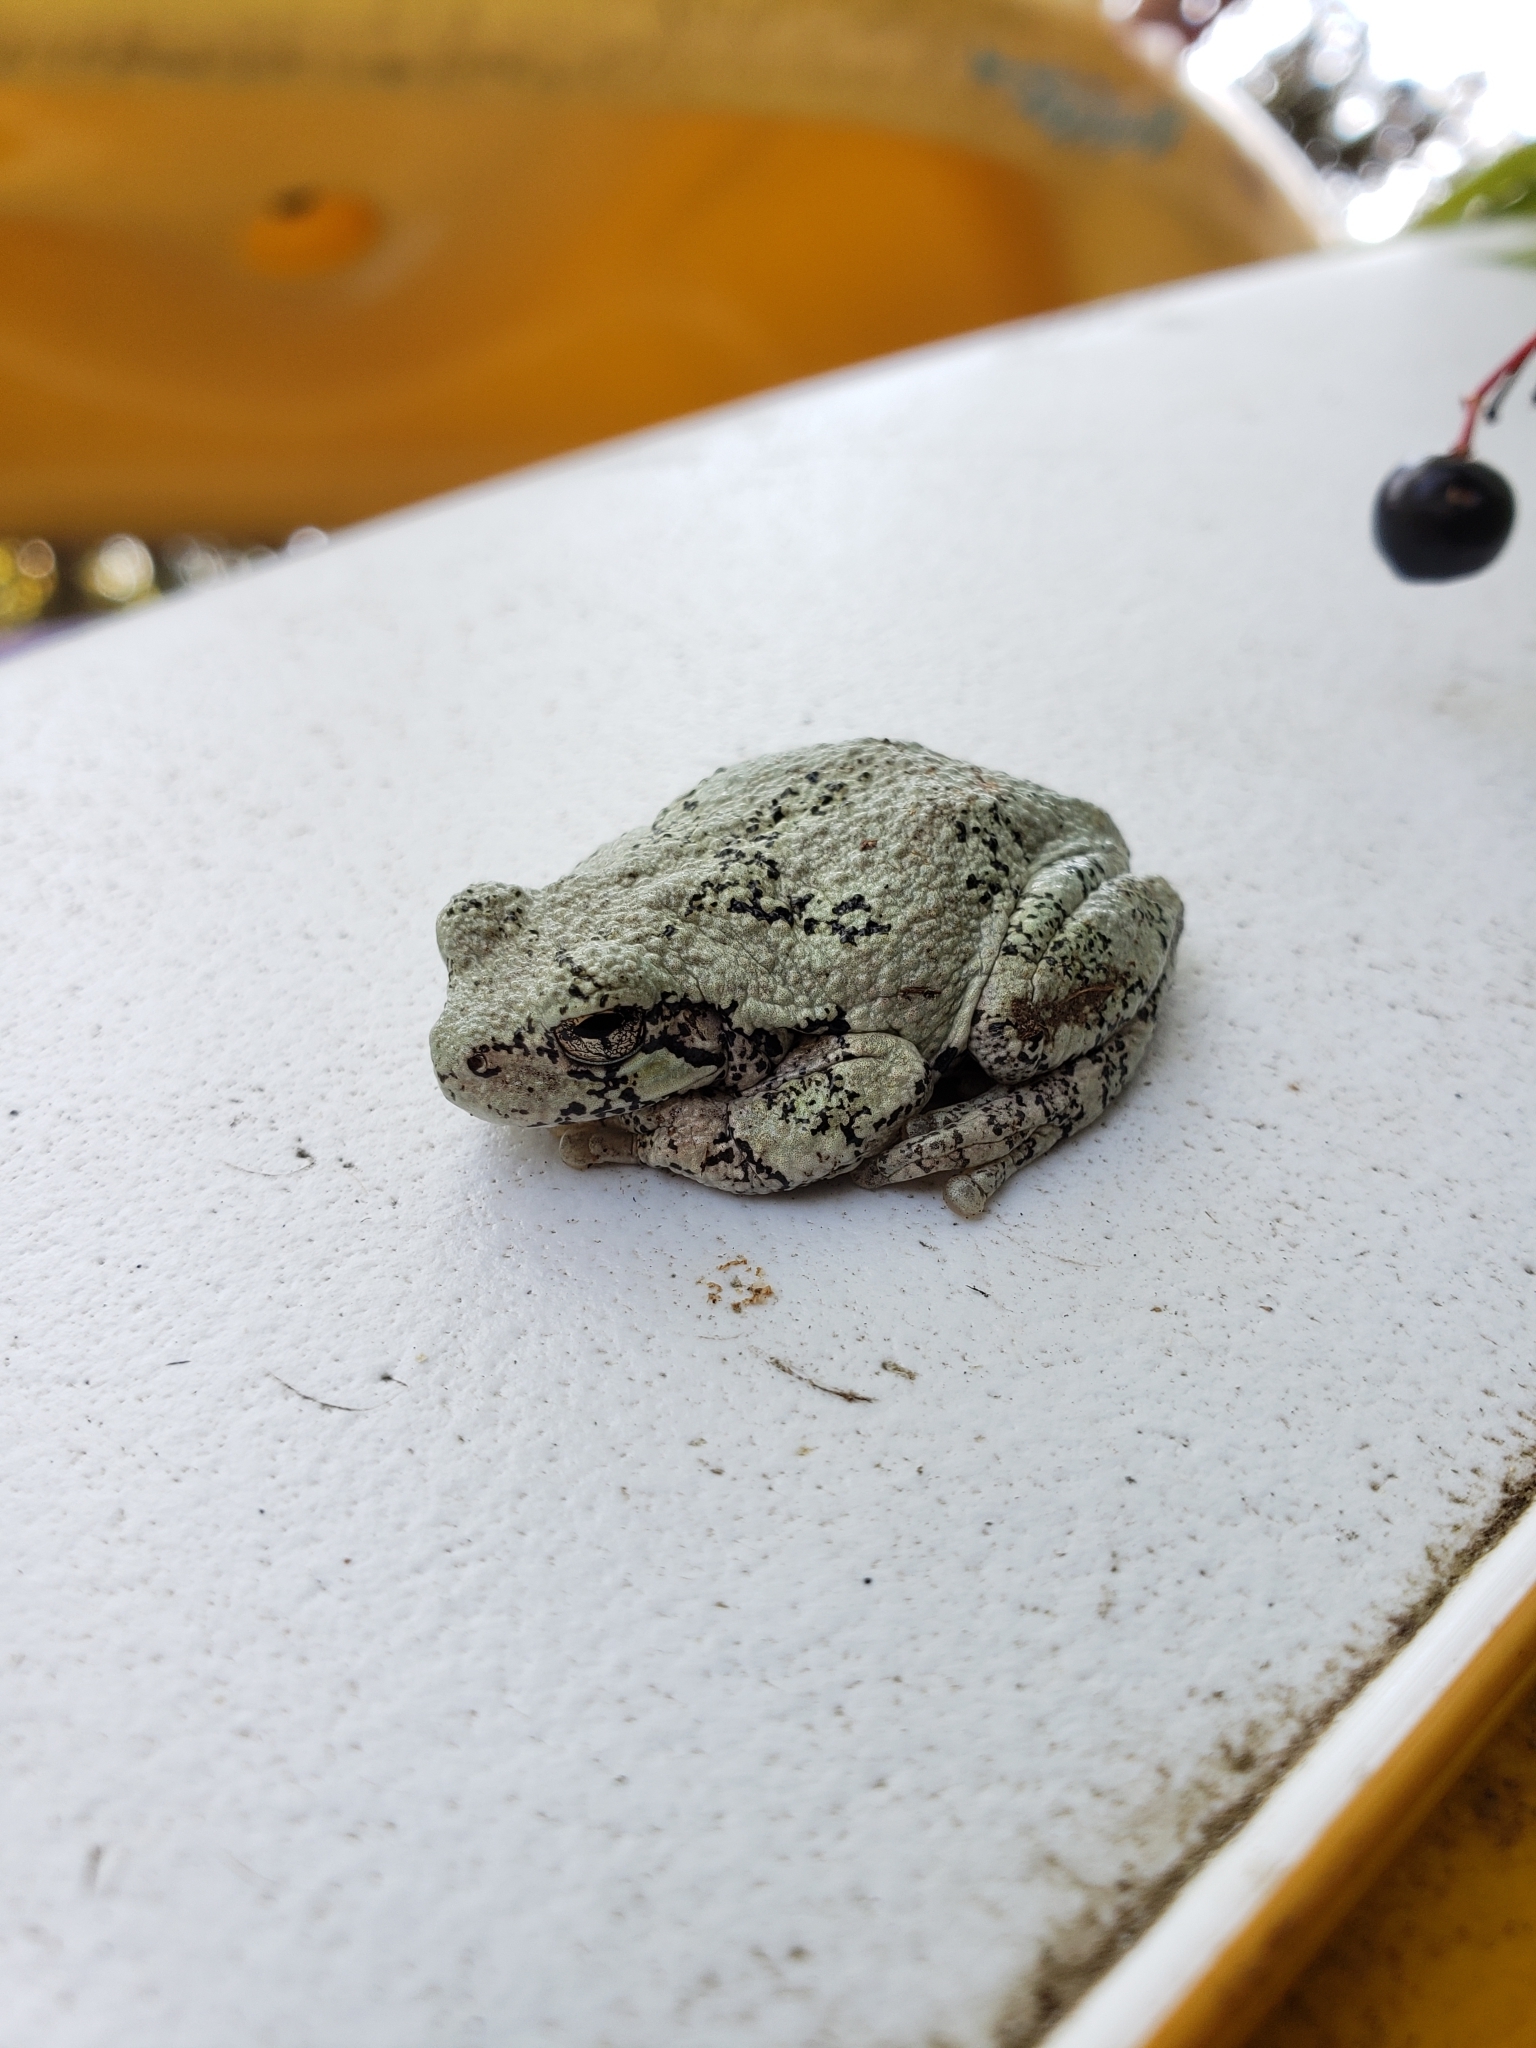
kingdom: Animalia
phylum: Chordata
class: Amphibia
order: Anura
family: Hylidae
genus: Dryophytes
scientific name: Dryophytes versicolor
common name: Gray treefrog
